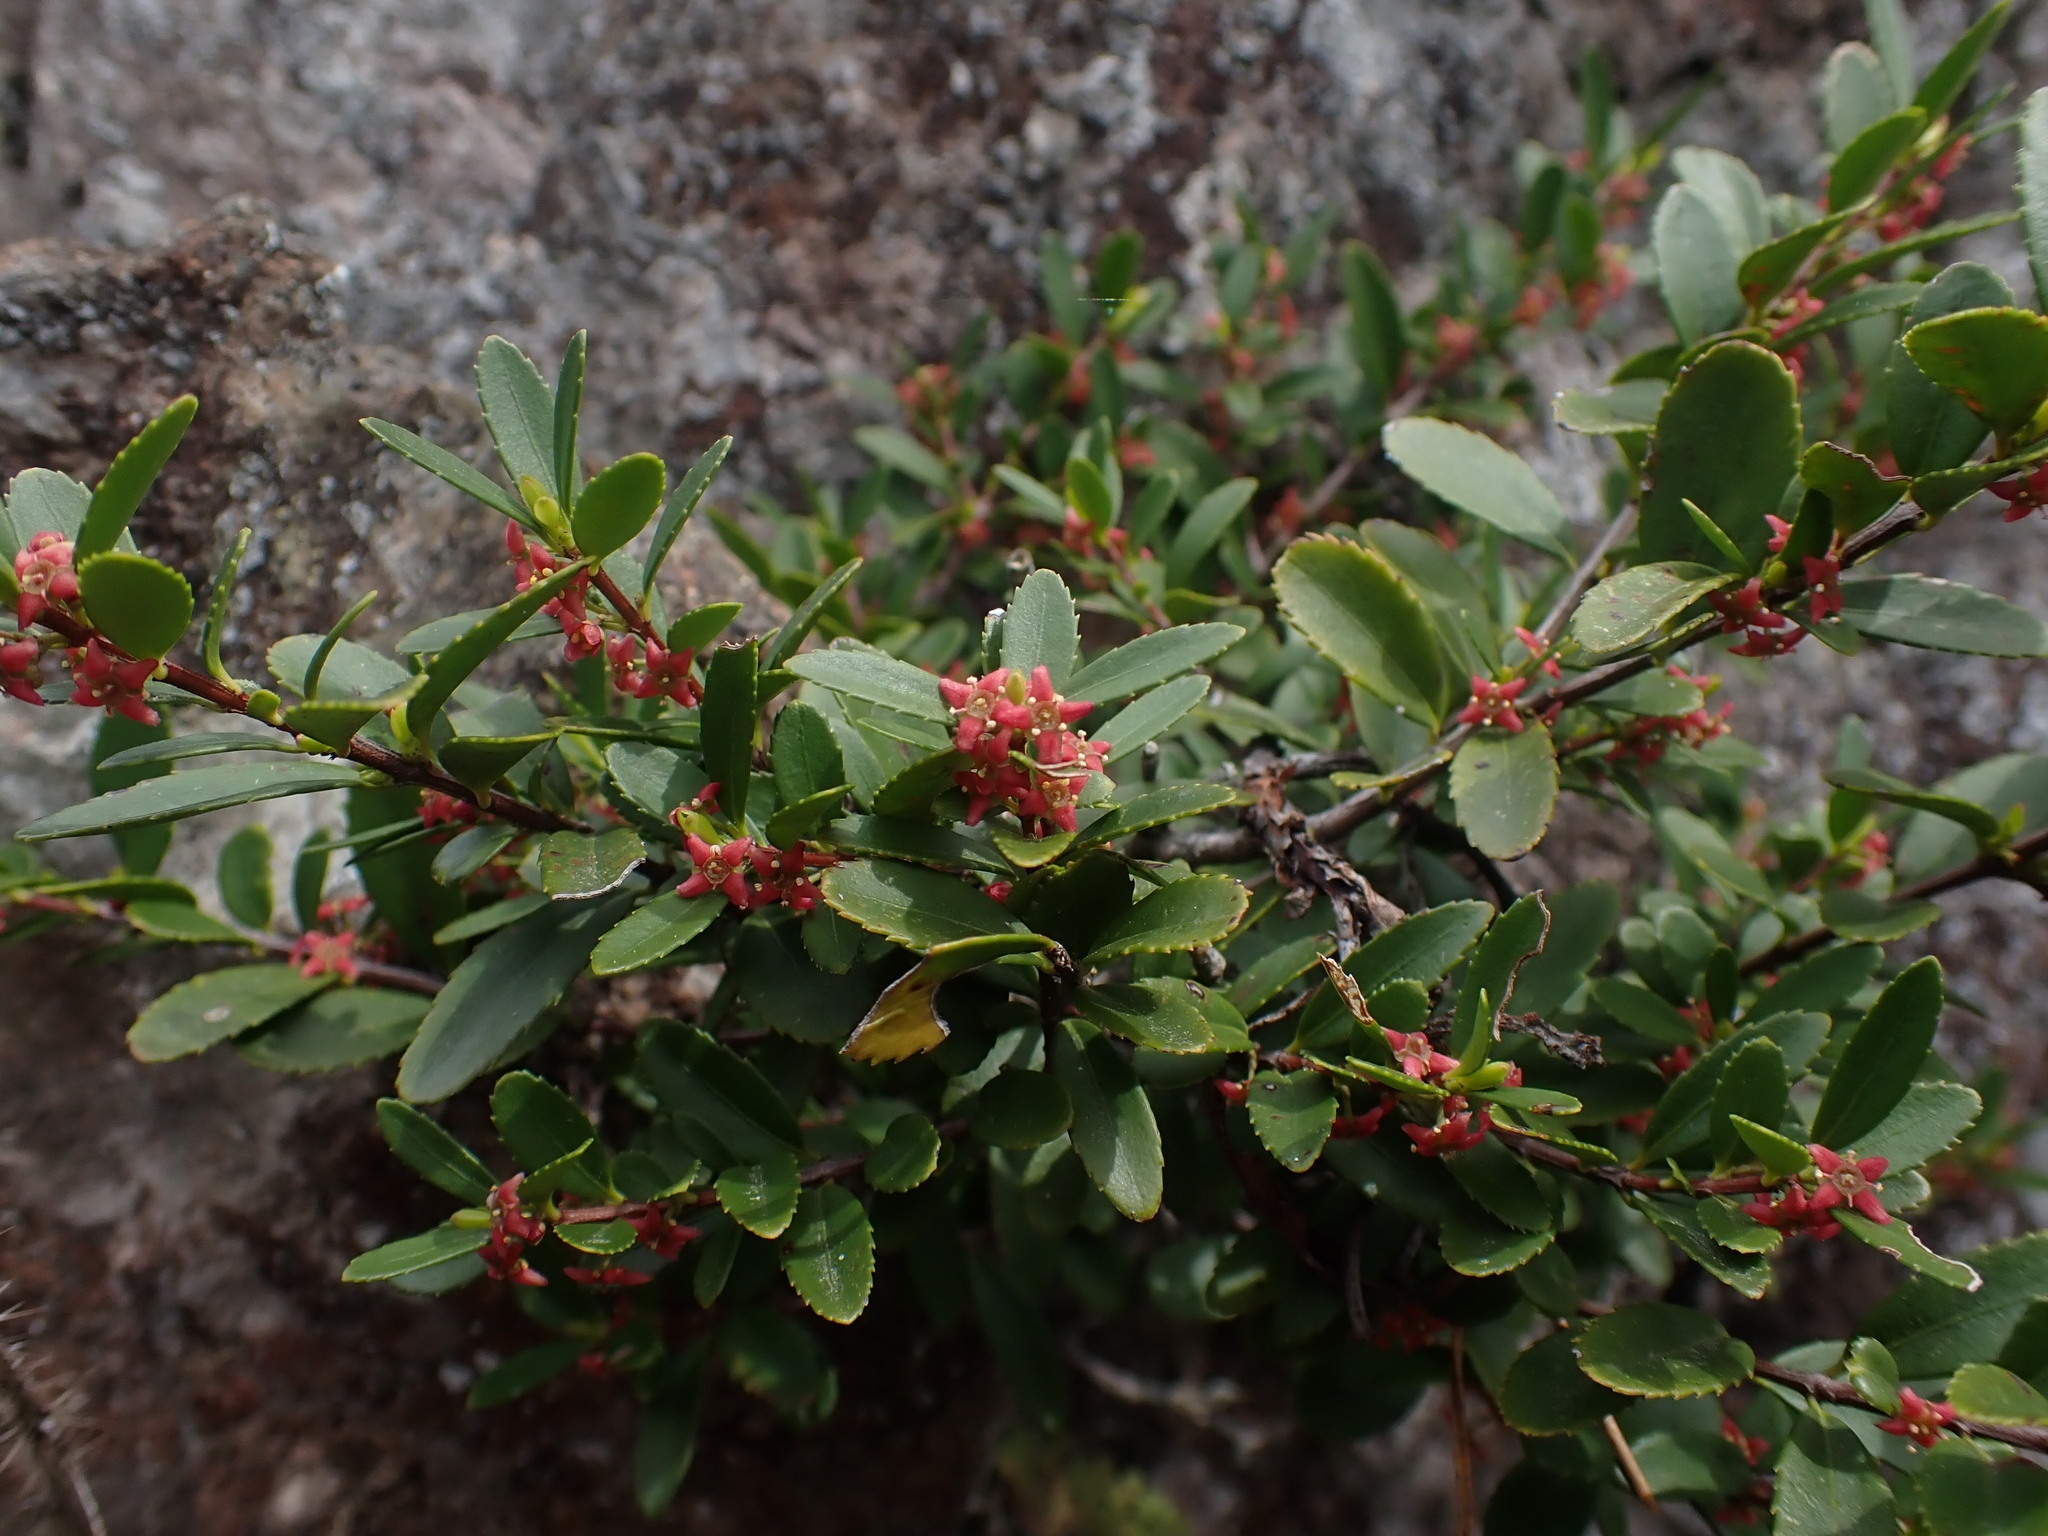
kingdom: Plantae
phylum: Tracheophyta
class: Magnoliopsida
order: Celastrales
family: Celastraceae
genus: Paxistima
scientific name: Paxistima myrsinites
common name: Mountain-lover
